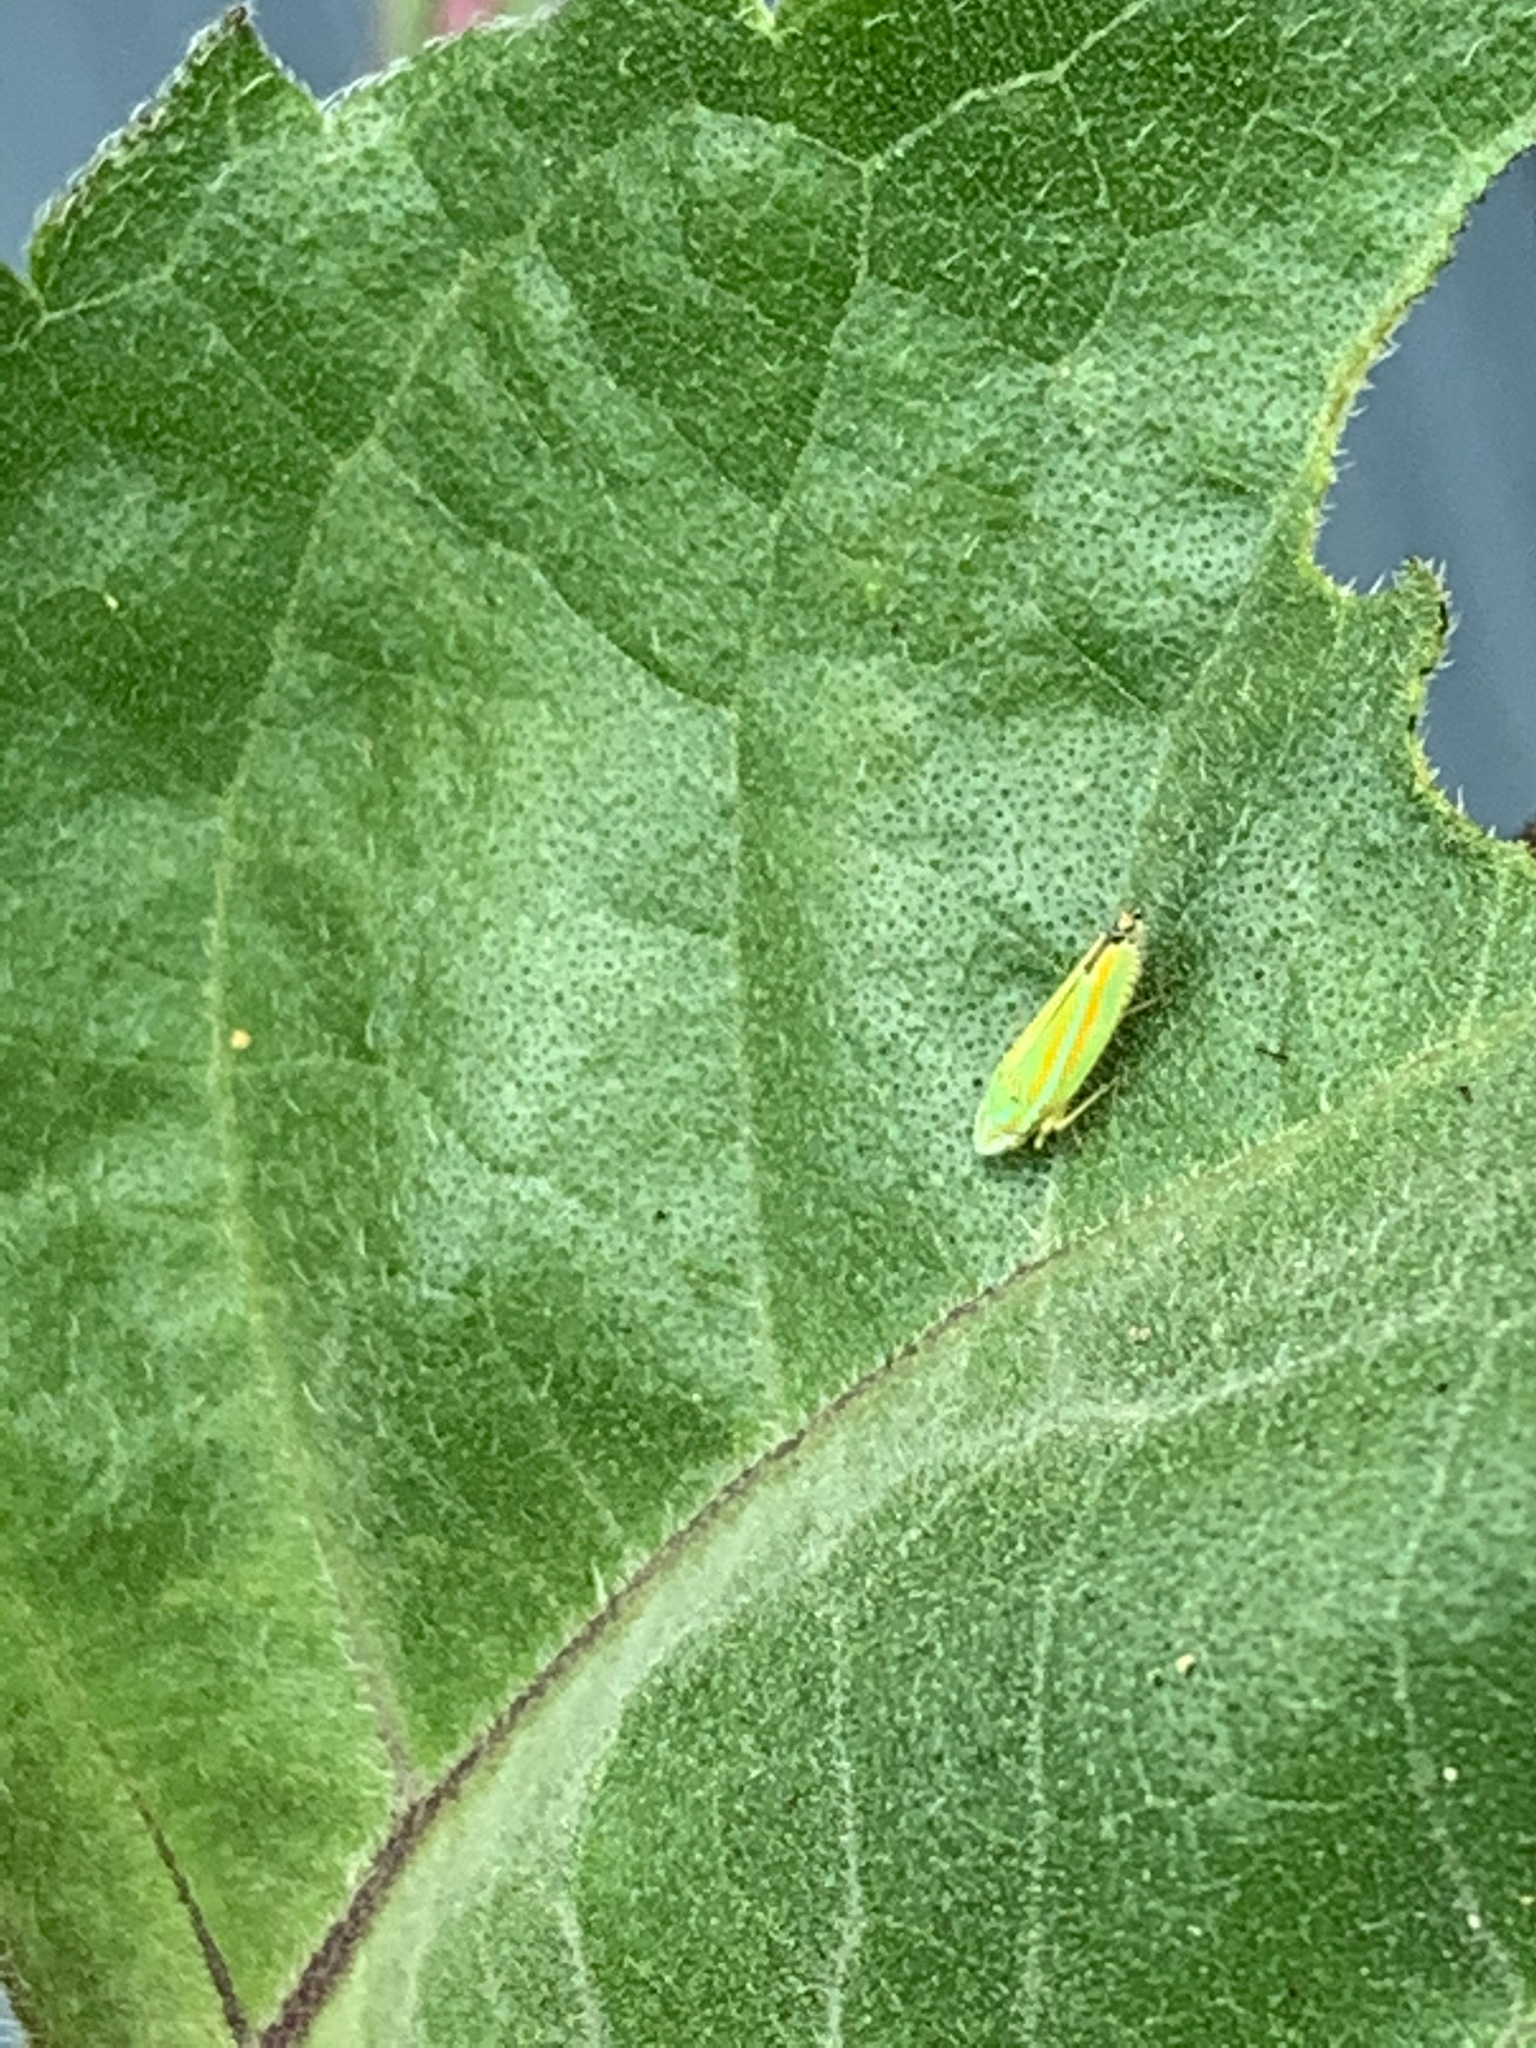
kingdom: Animalia
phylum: Arthropoda
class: Insecta
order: Hemiptera
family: Cicadellidae
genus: Graphocephala
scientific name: Graphocephala versuta
